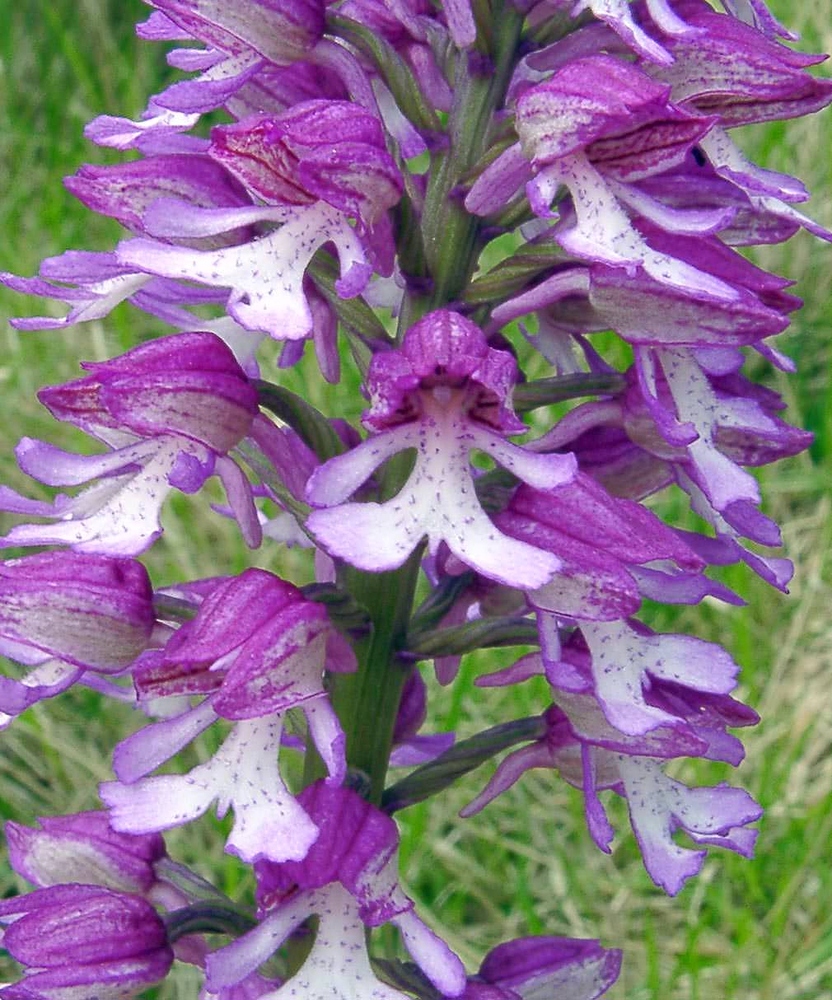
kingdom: Plantae
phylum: Tracheophyta
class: Liliopsida
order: Asparagales
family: Orchidaceae
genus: Orchis
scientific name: Orchis hybrida
